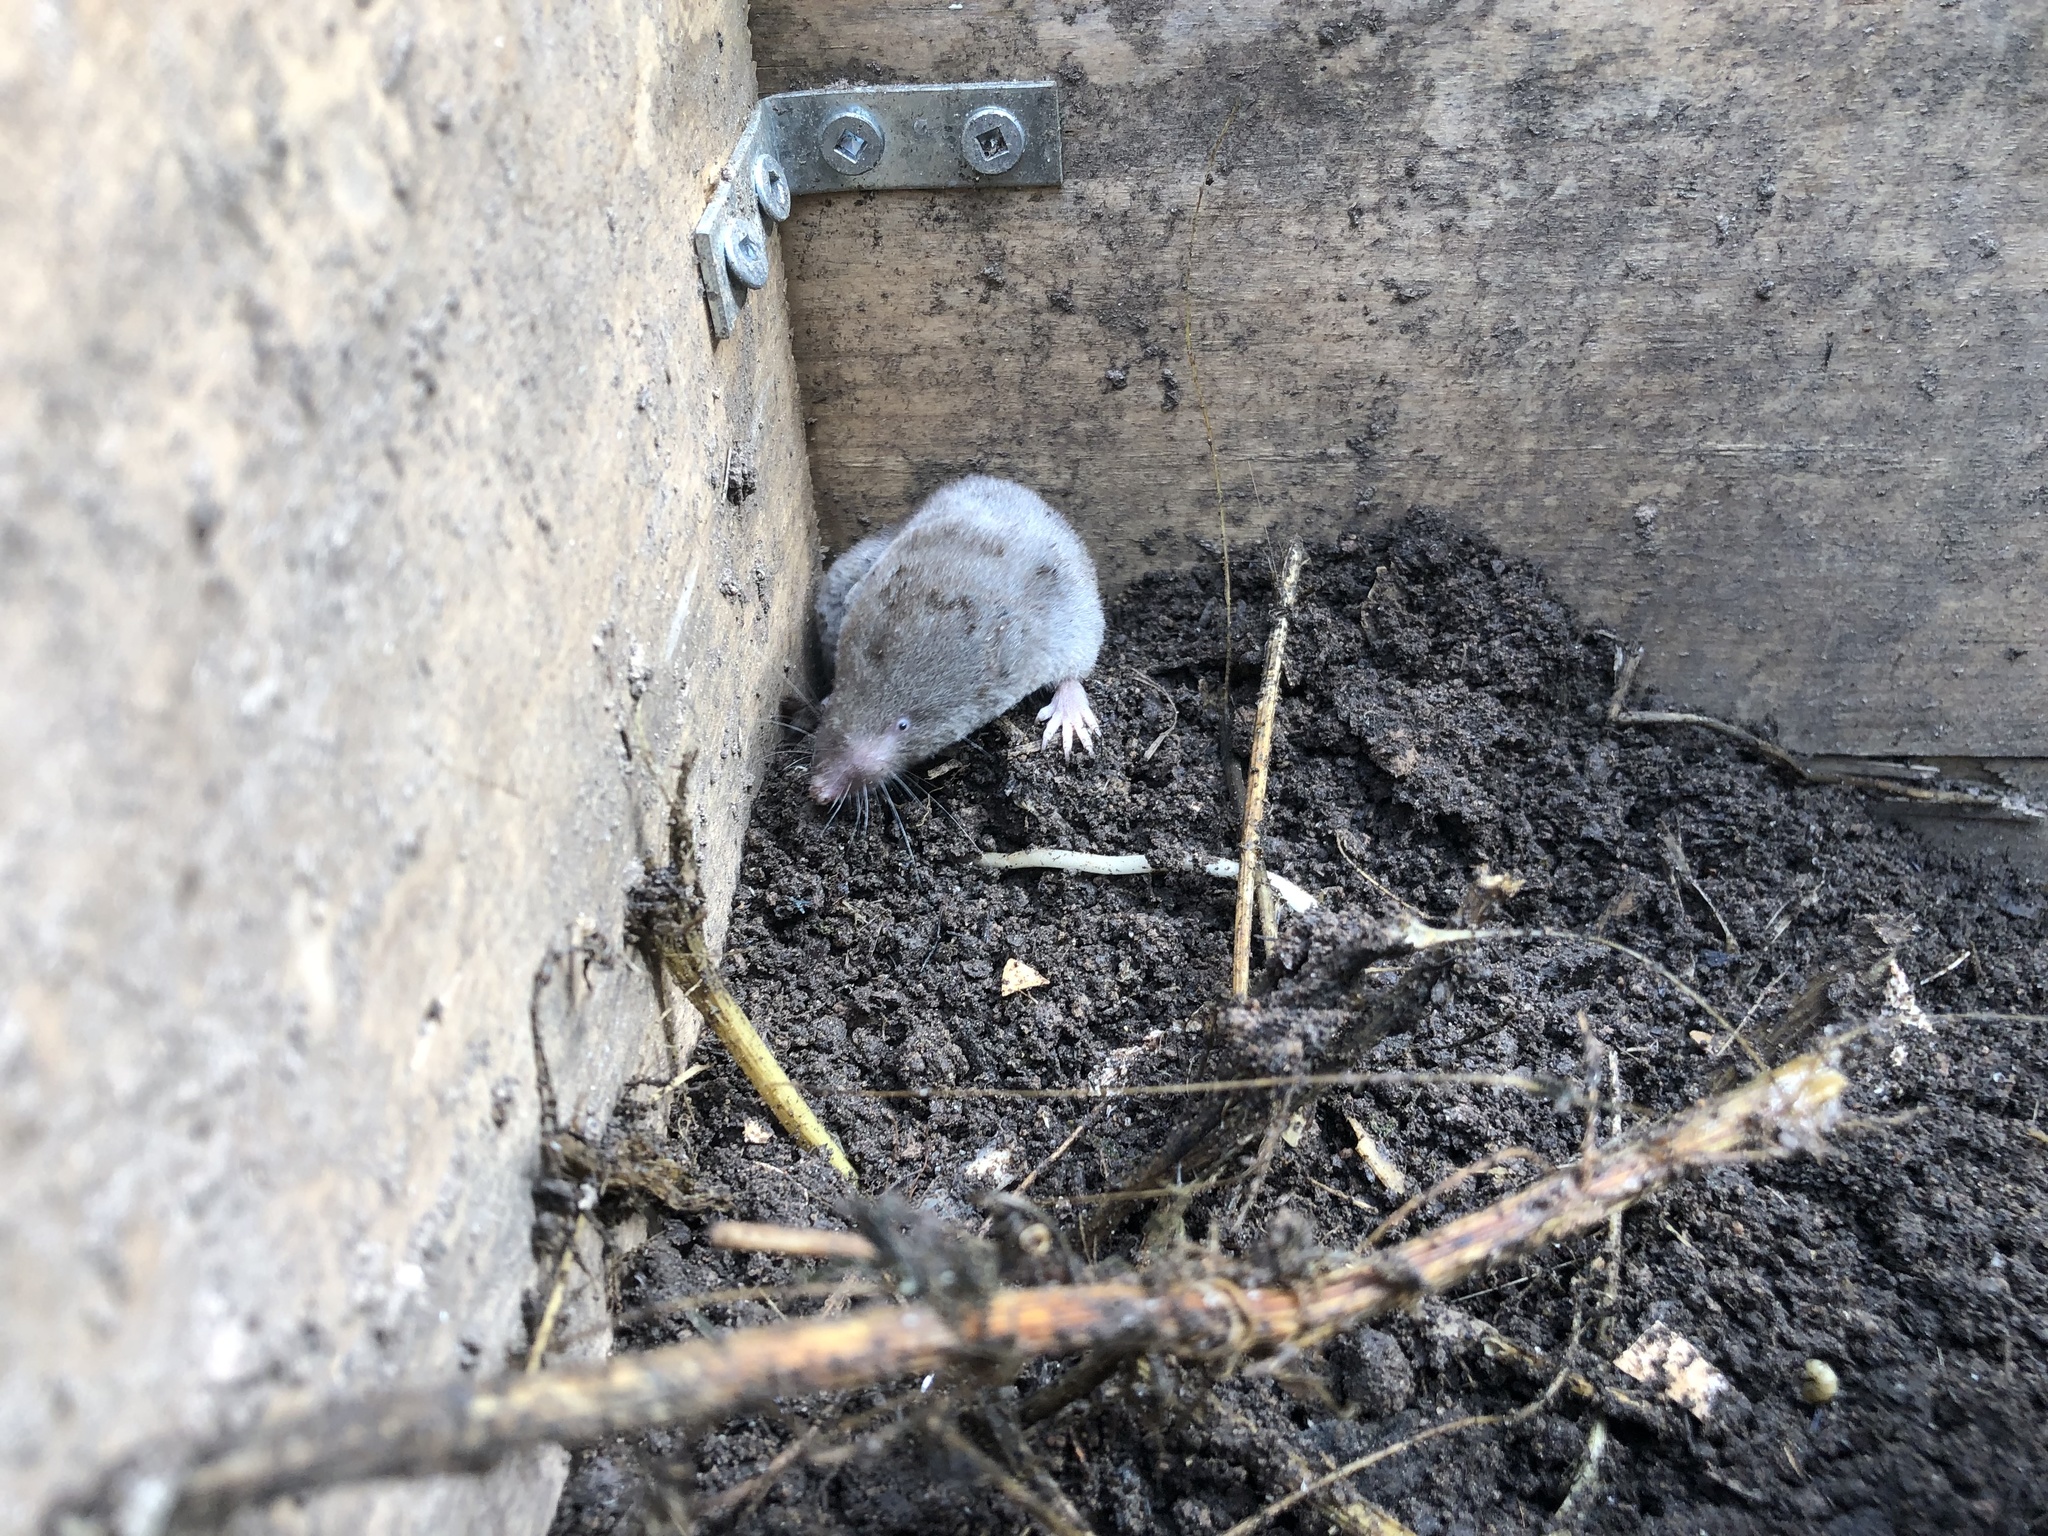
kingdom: Animalia
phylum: Chordata
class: Mammalia
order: Soricomorpha
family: Soricidae
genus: Blarina
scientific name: Blarina brevicauda
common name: Northern short-tailed shrew
